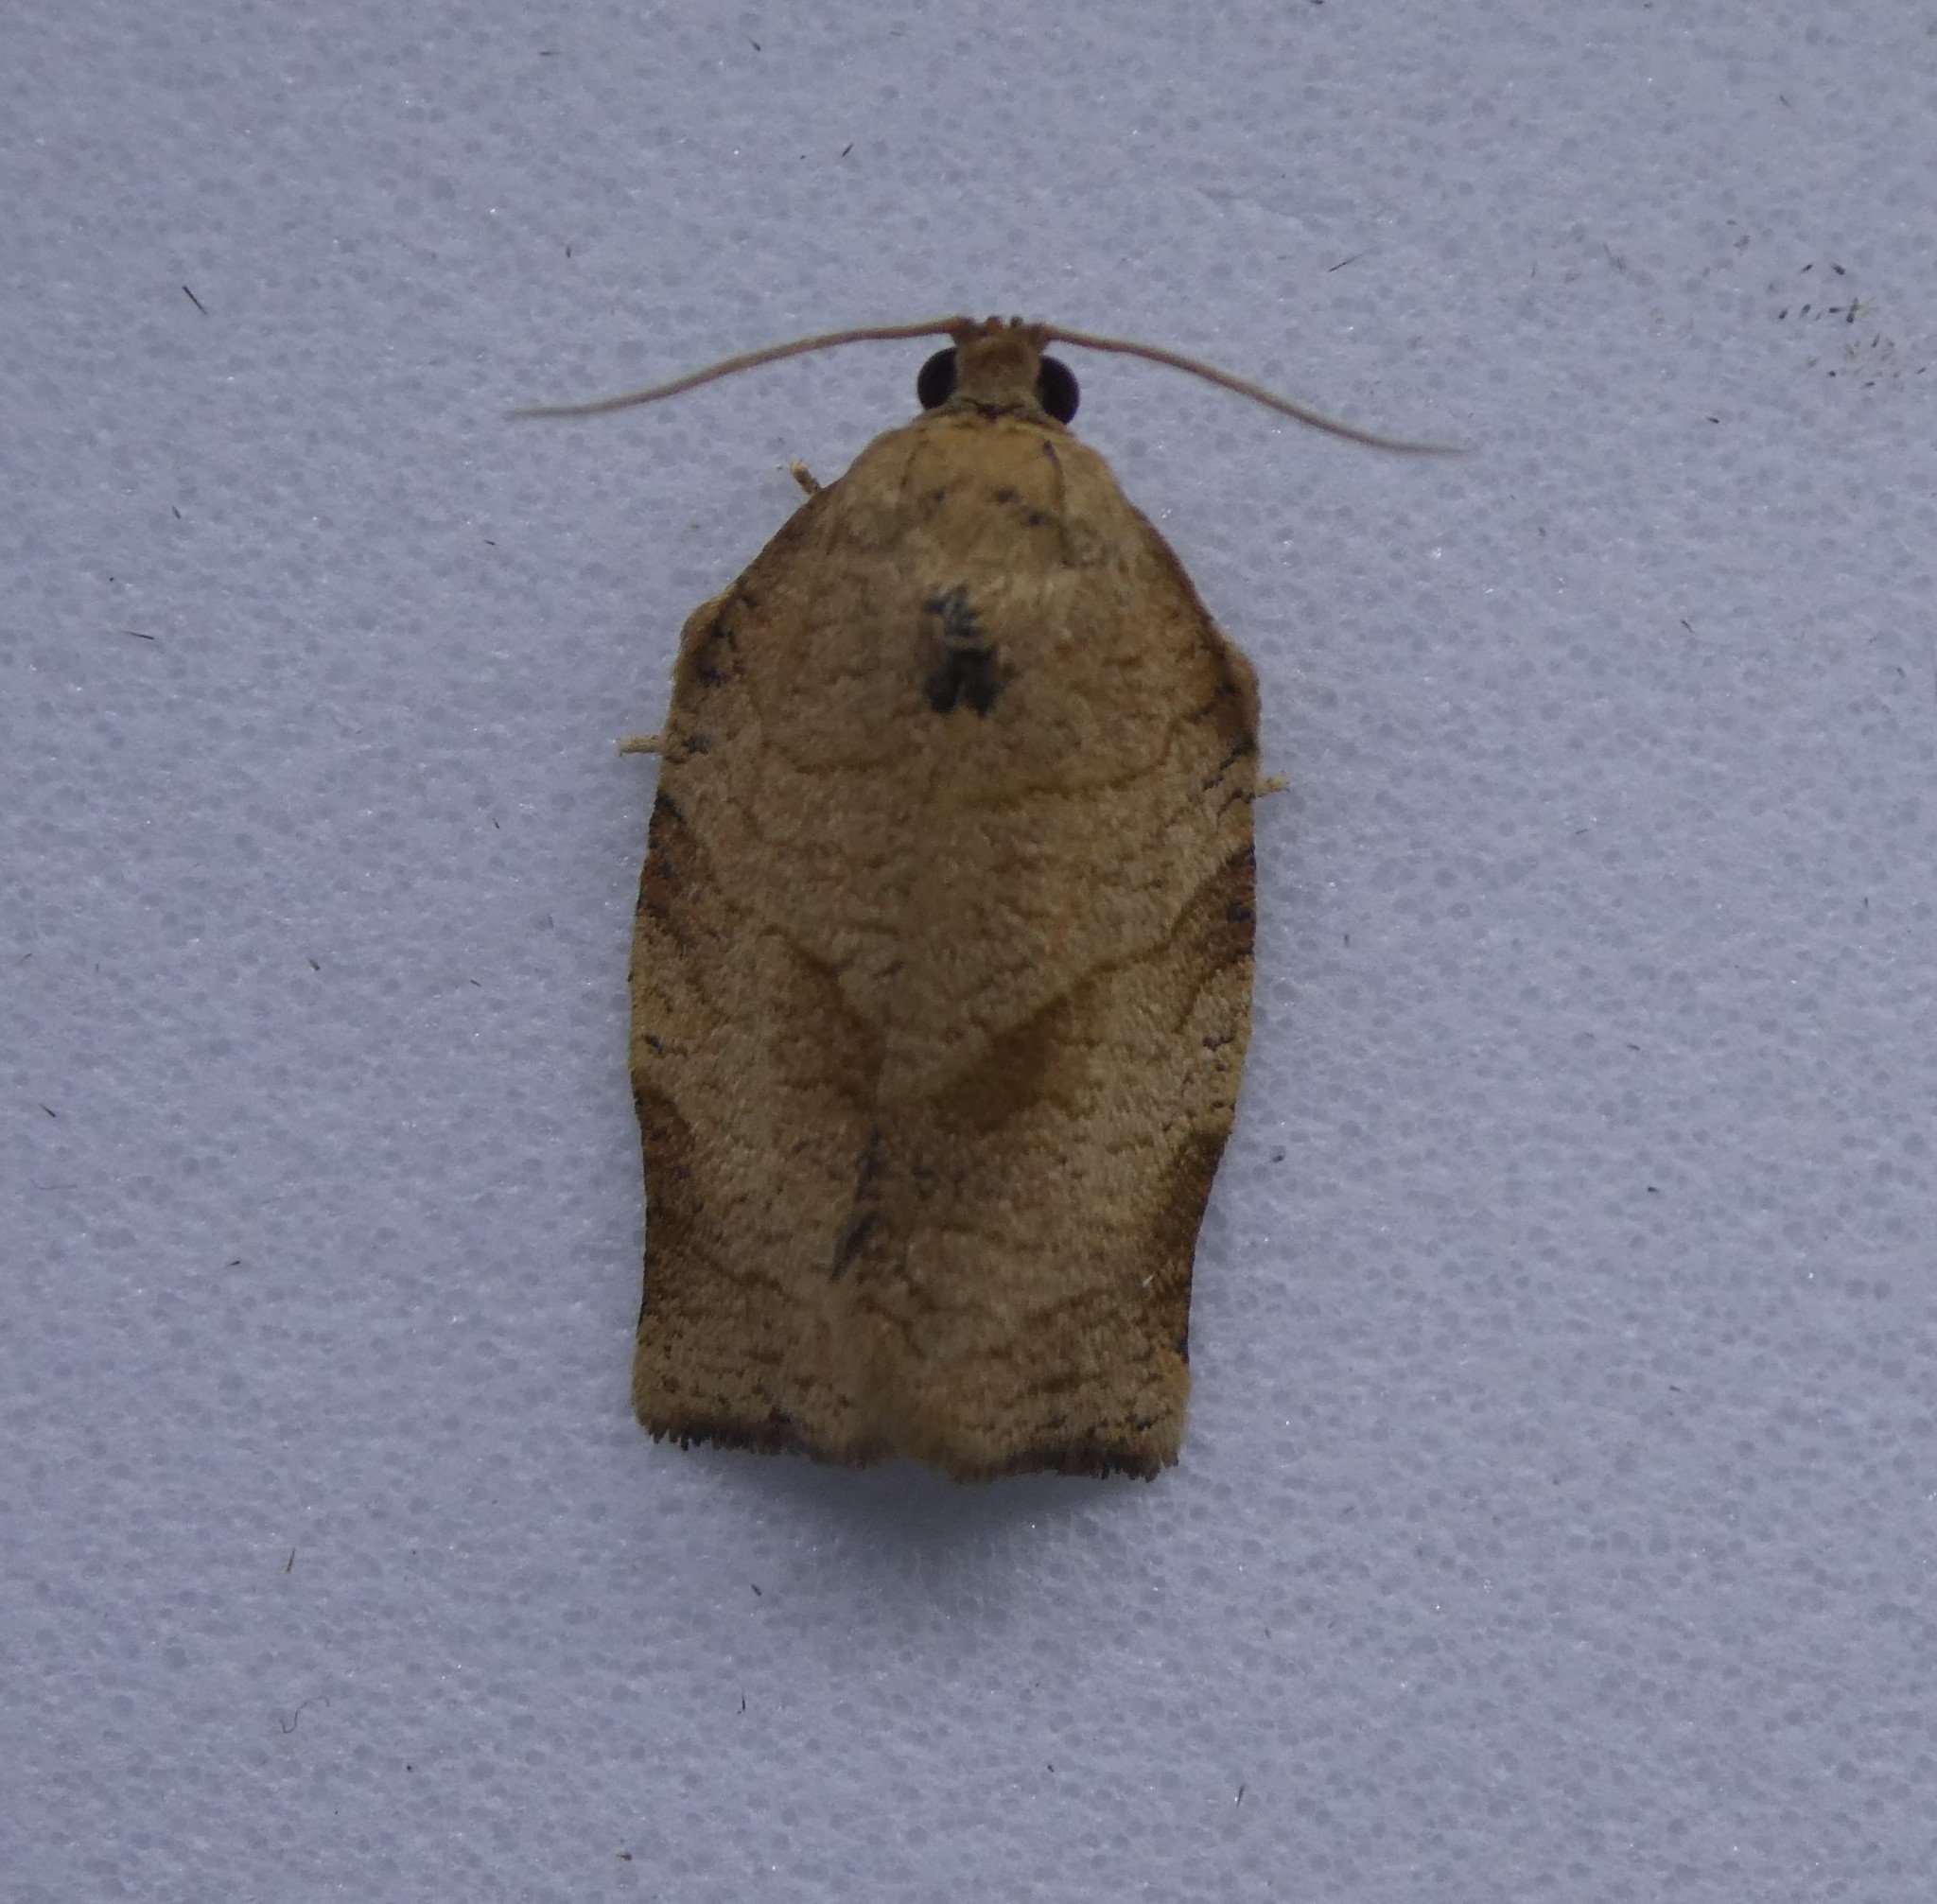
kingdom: Animalia
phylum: Arthropoda
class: Insecta
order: Lepidoptera
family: Tortricidae
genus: Choristoneura
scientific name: Choristoneura rosaceana
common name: Oblique-banded leafroller moth
